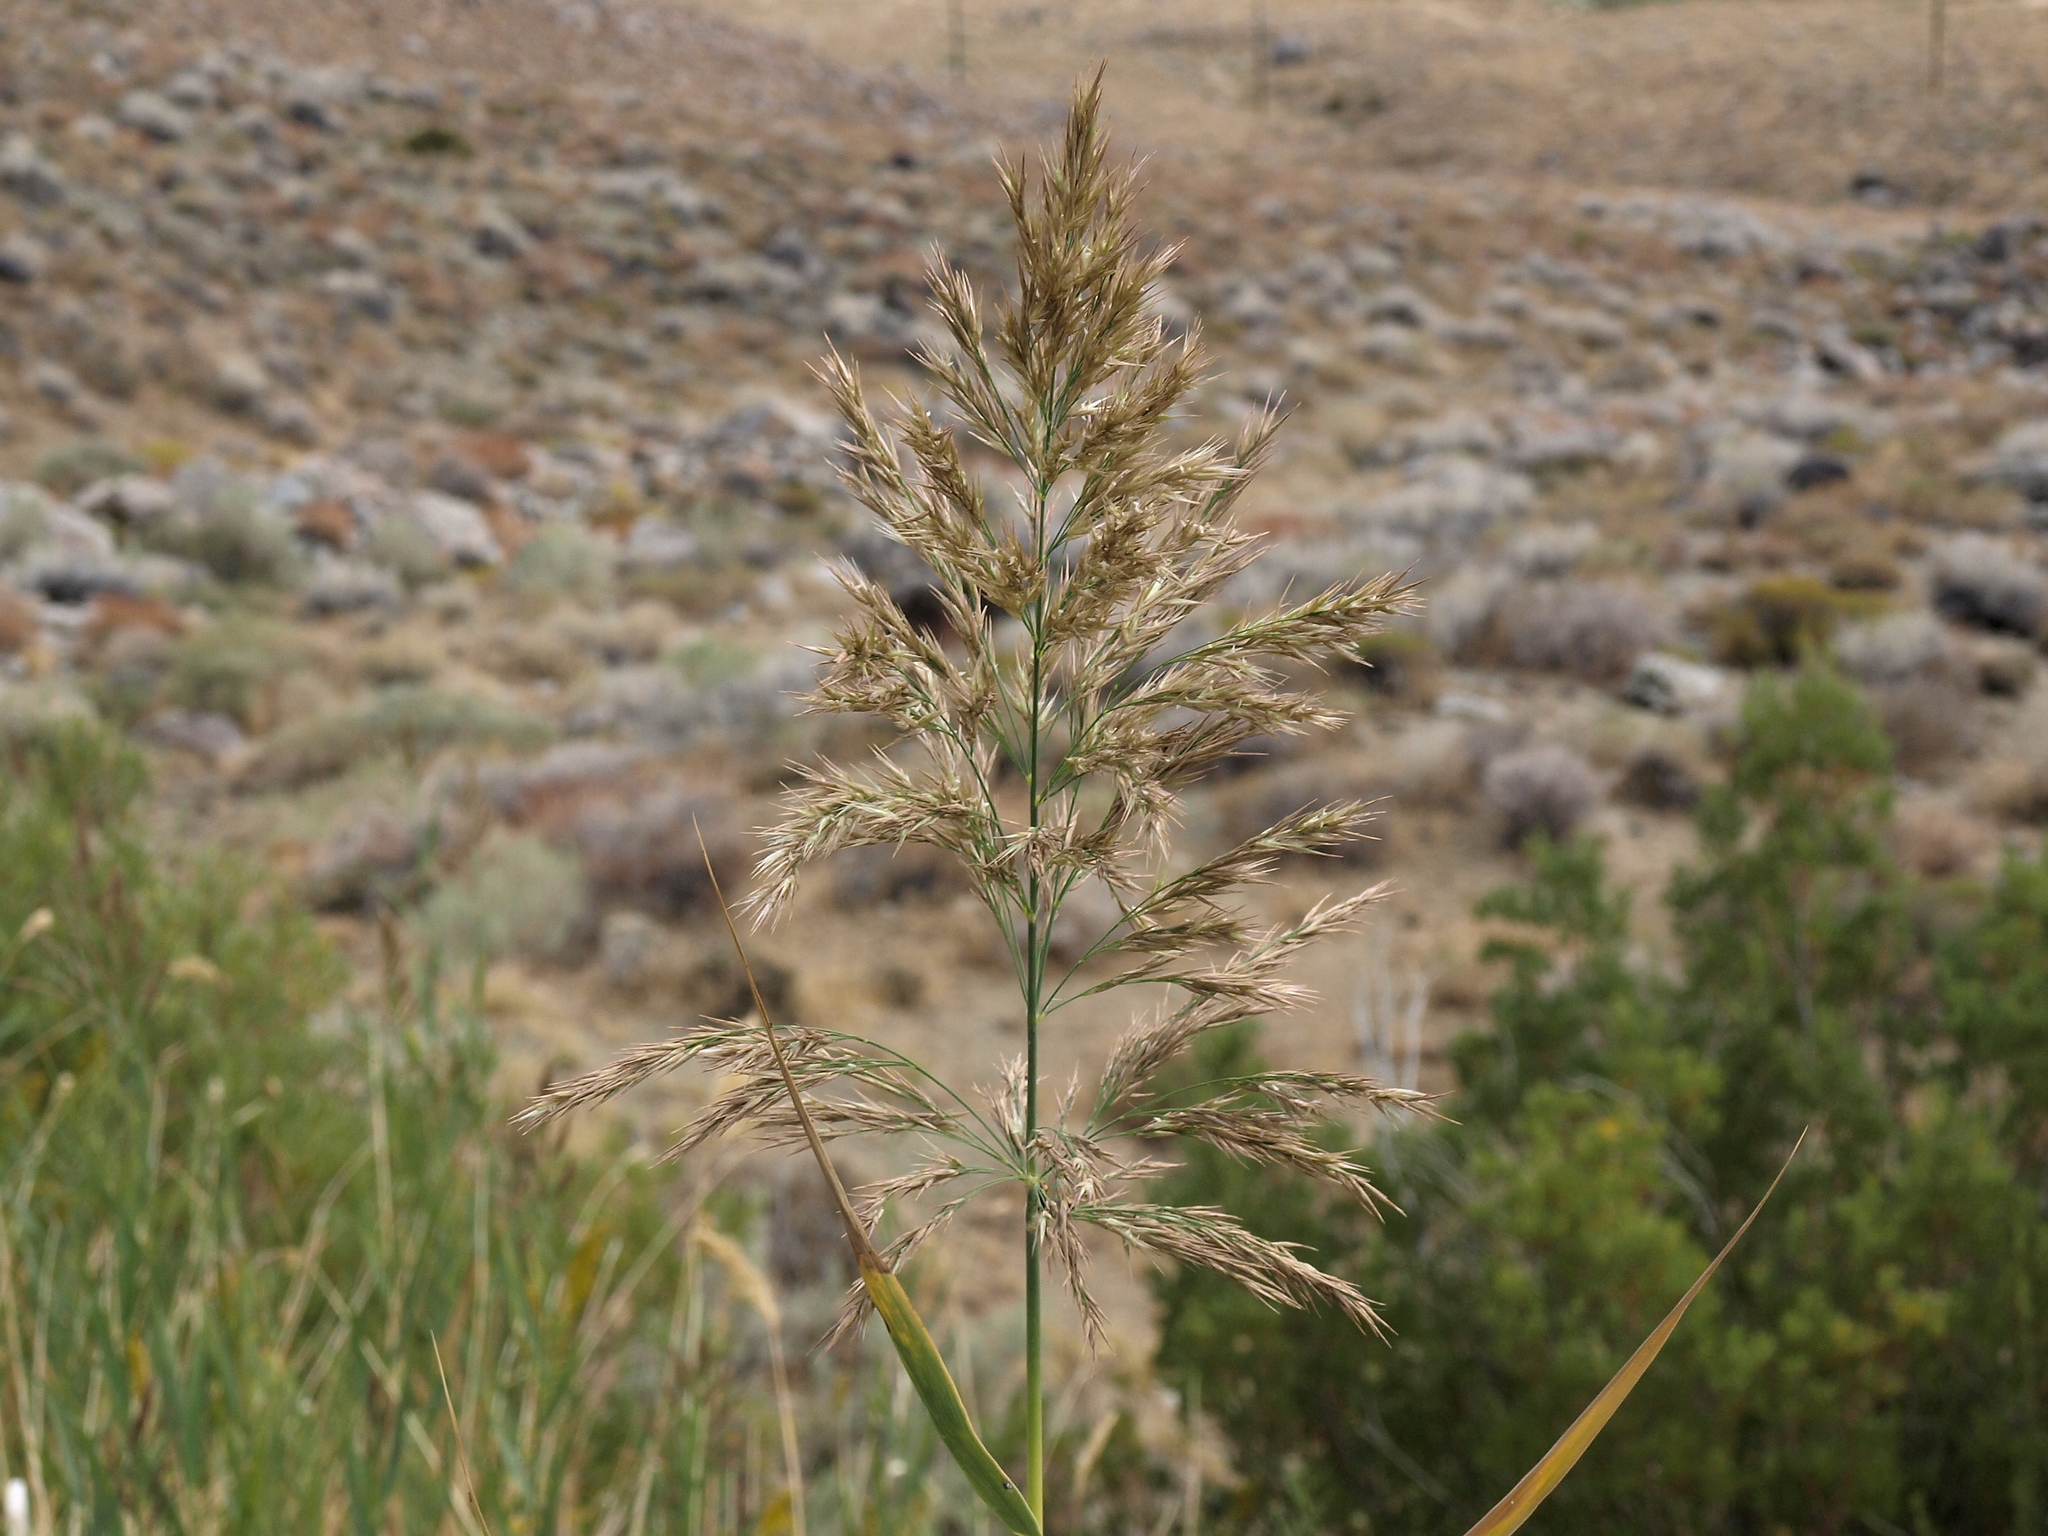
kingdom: Plantae
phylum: Tracheophyta
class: Liliopsida
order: Poales
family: Poaceae
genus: Phragmites
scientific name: Phragmites australis
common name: Common reed
